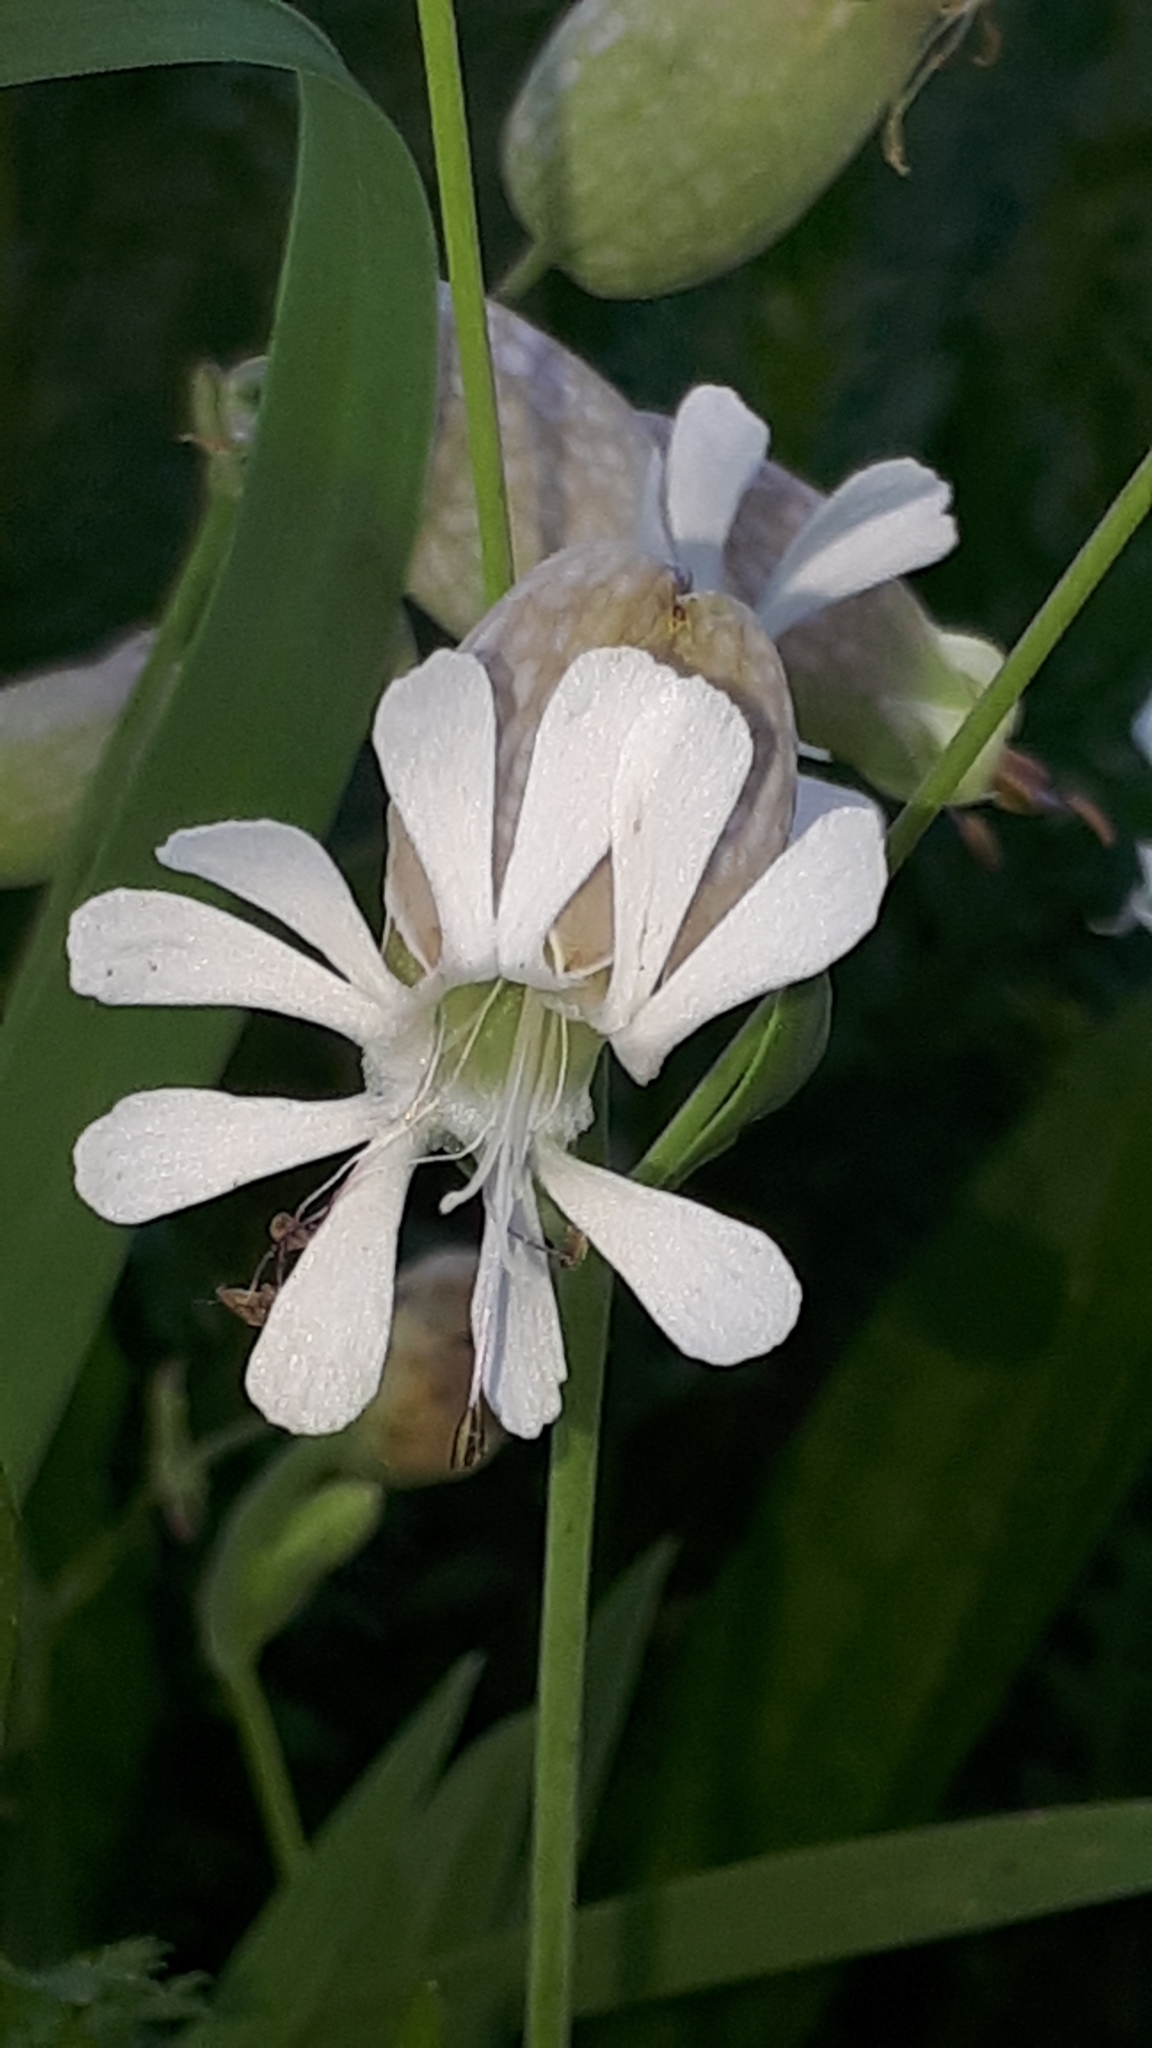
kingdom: Plantae
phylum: Tracheophyta
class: Magnoliopsida
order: Caryophyllales
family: Caryophyllaceae
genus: Silene
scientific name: Silene vulgaris
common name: Bladder campion
